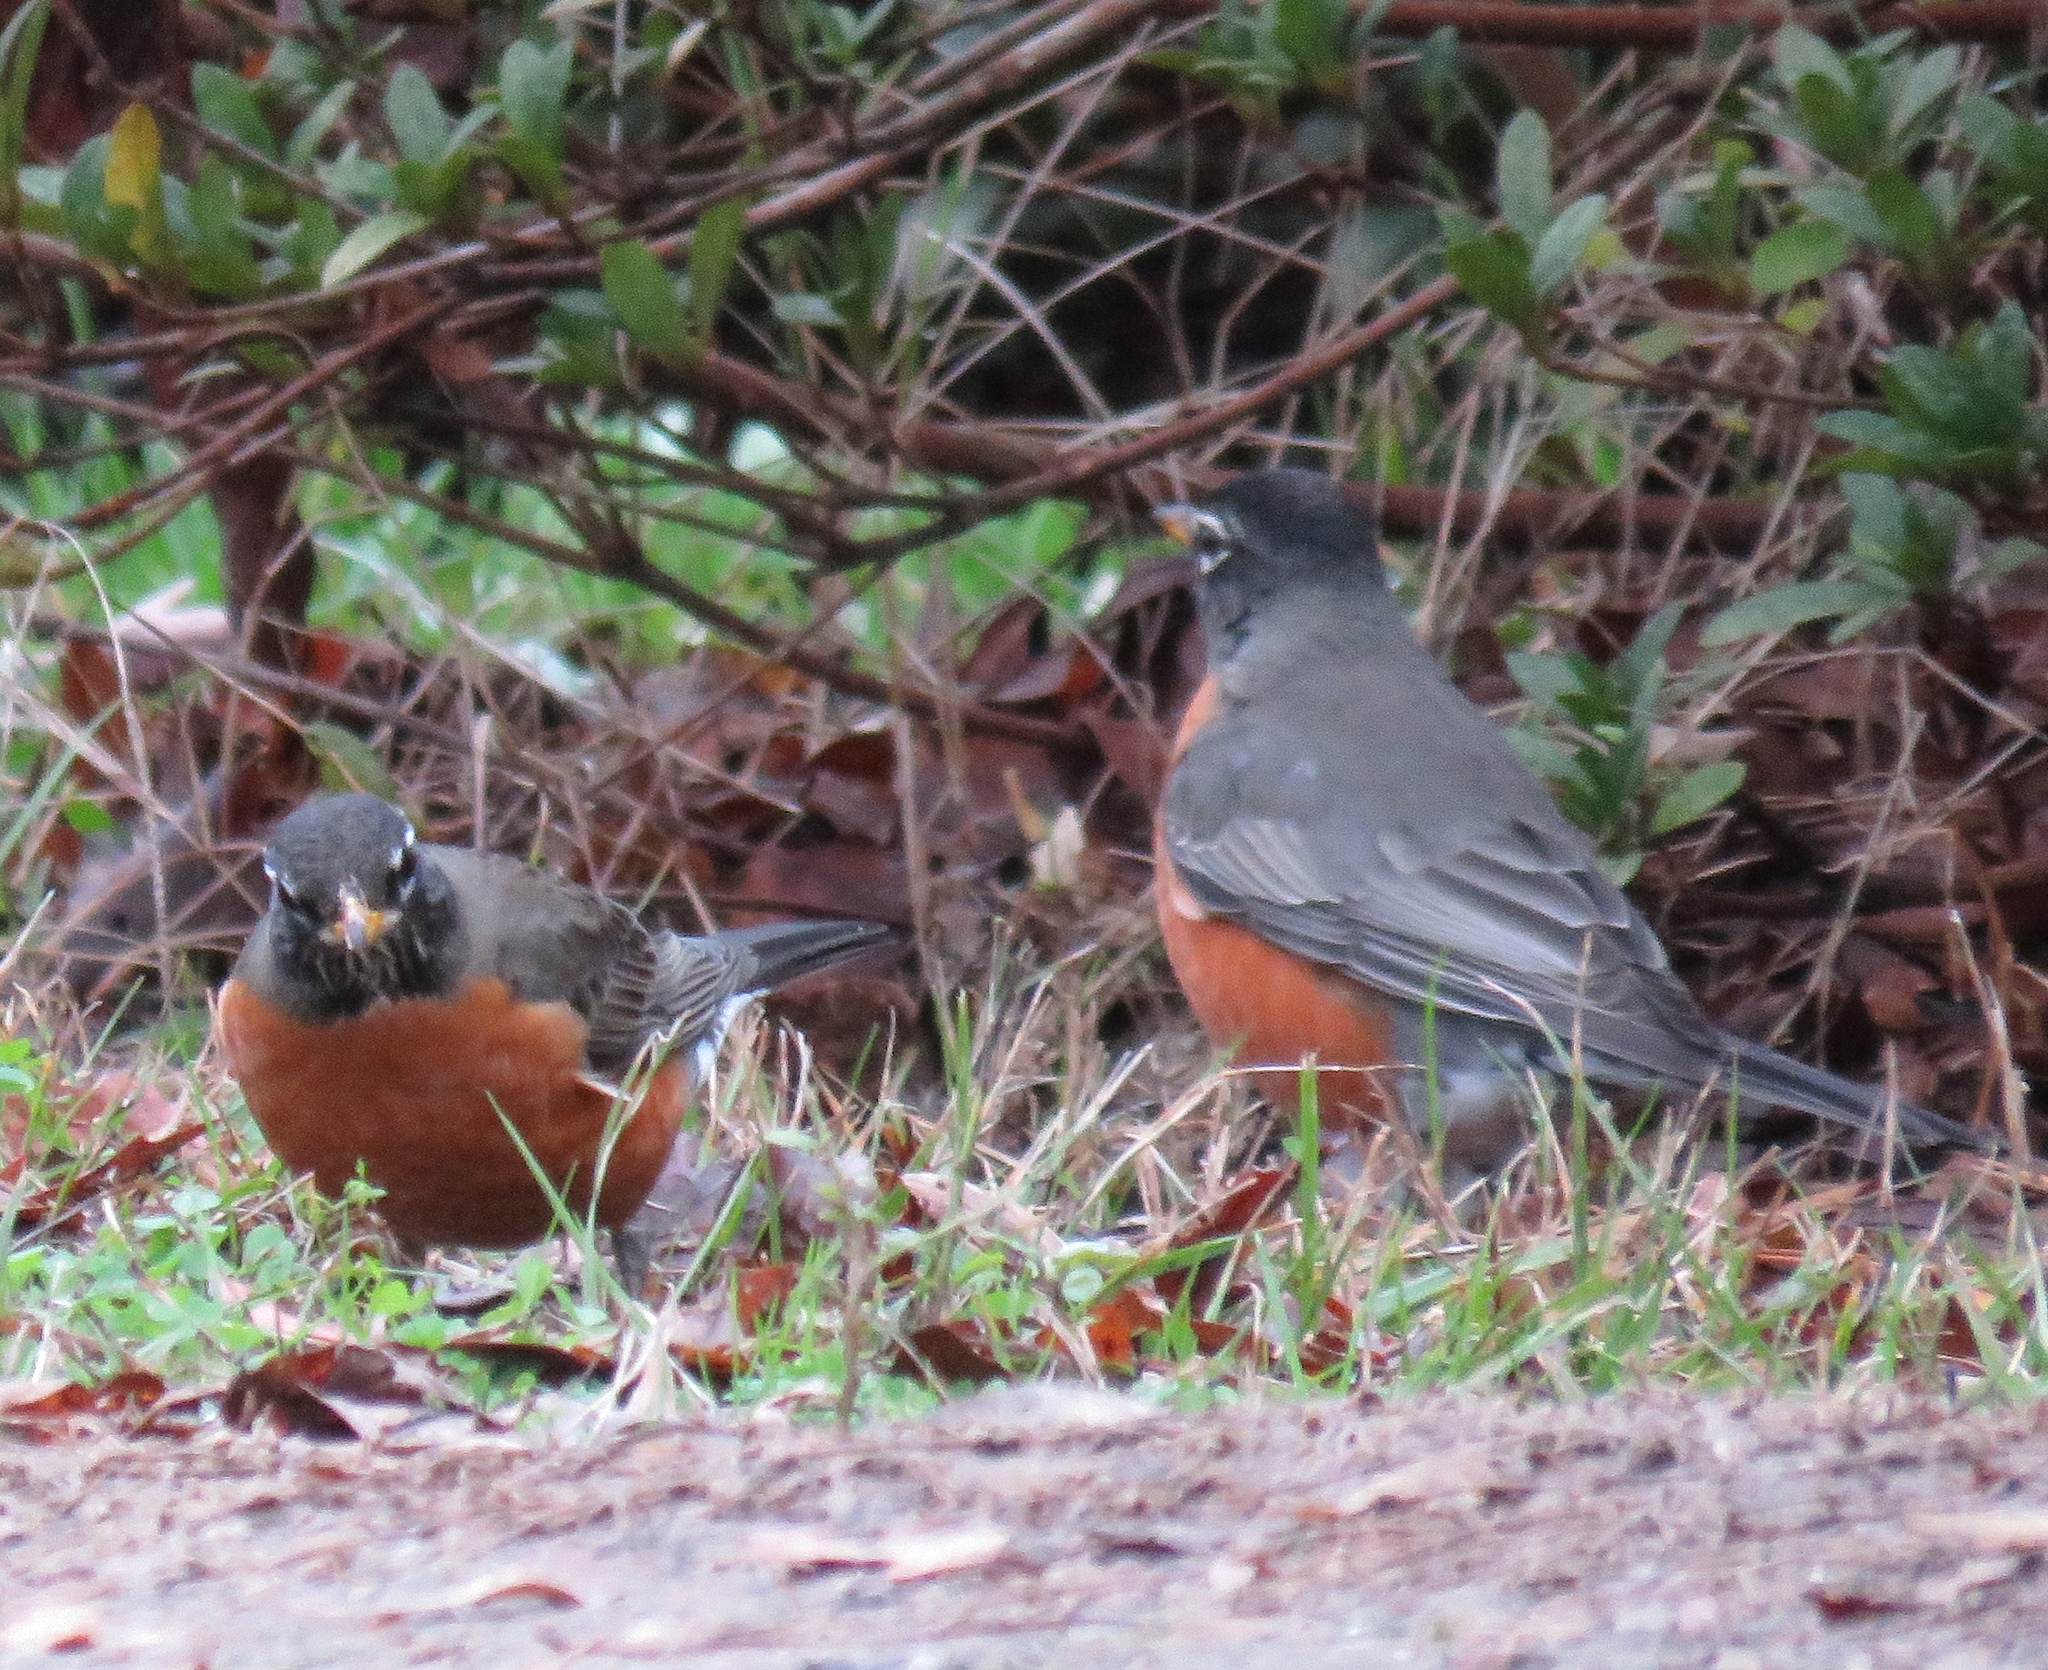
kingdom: Animalia
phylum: Chordata
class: Aves
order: Passeriformes
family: Turdidae
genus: Turdus
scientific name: Turdus migratorius
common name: American robin
